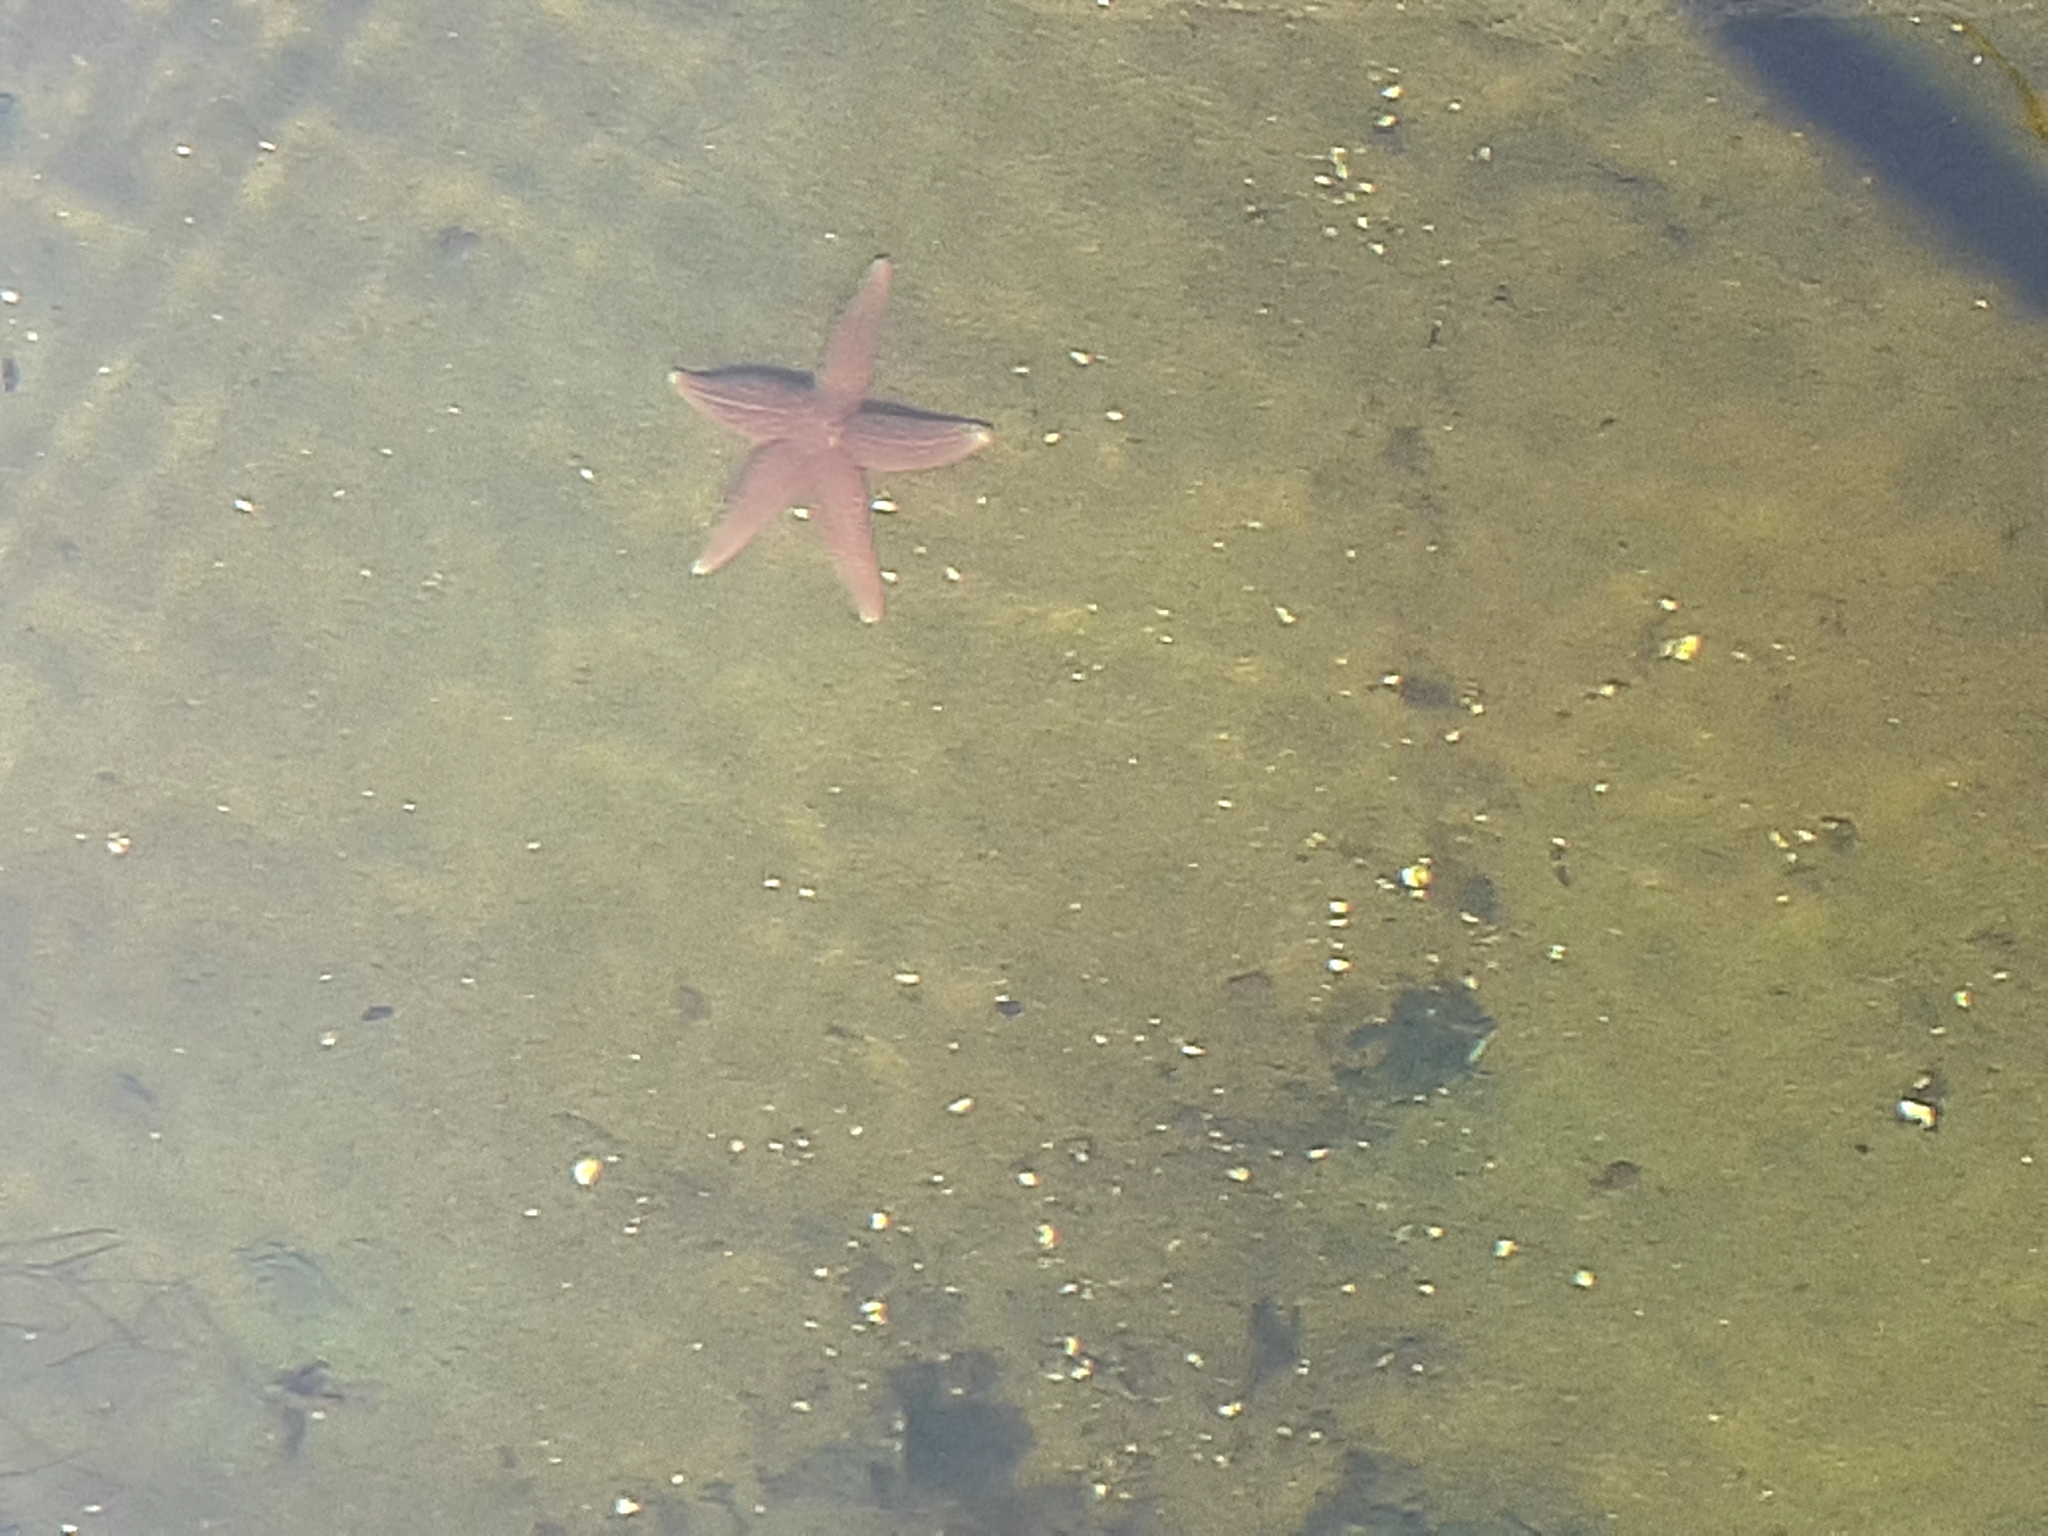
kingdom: Animalia
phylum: Echinodermata
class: Asteroidea
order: Forcipulatida
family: Asteriidae
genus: Asterias
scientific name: Asterias rubens
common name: Common starfish
